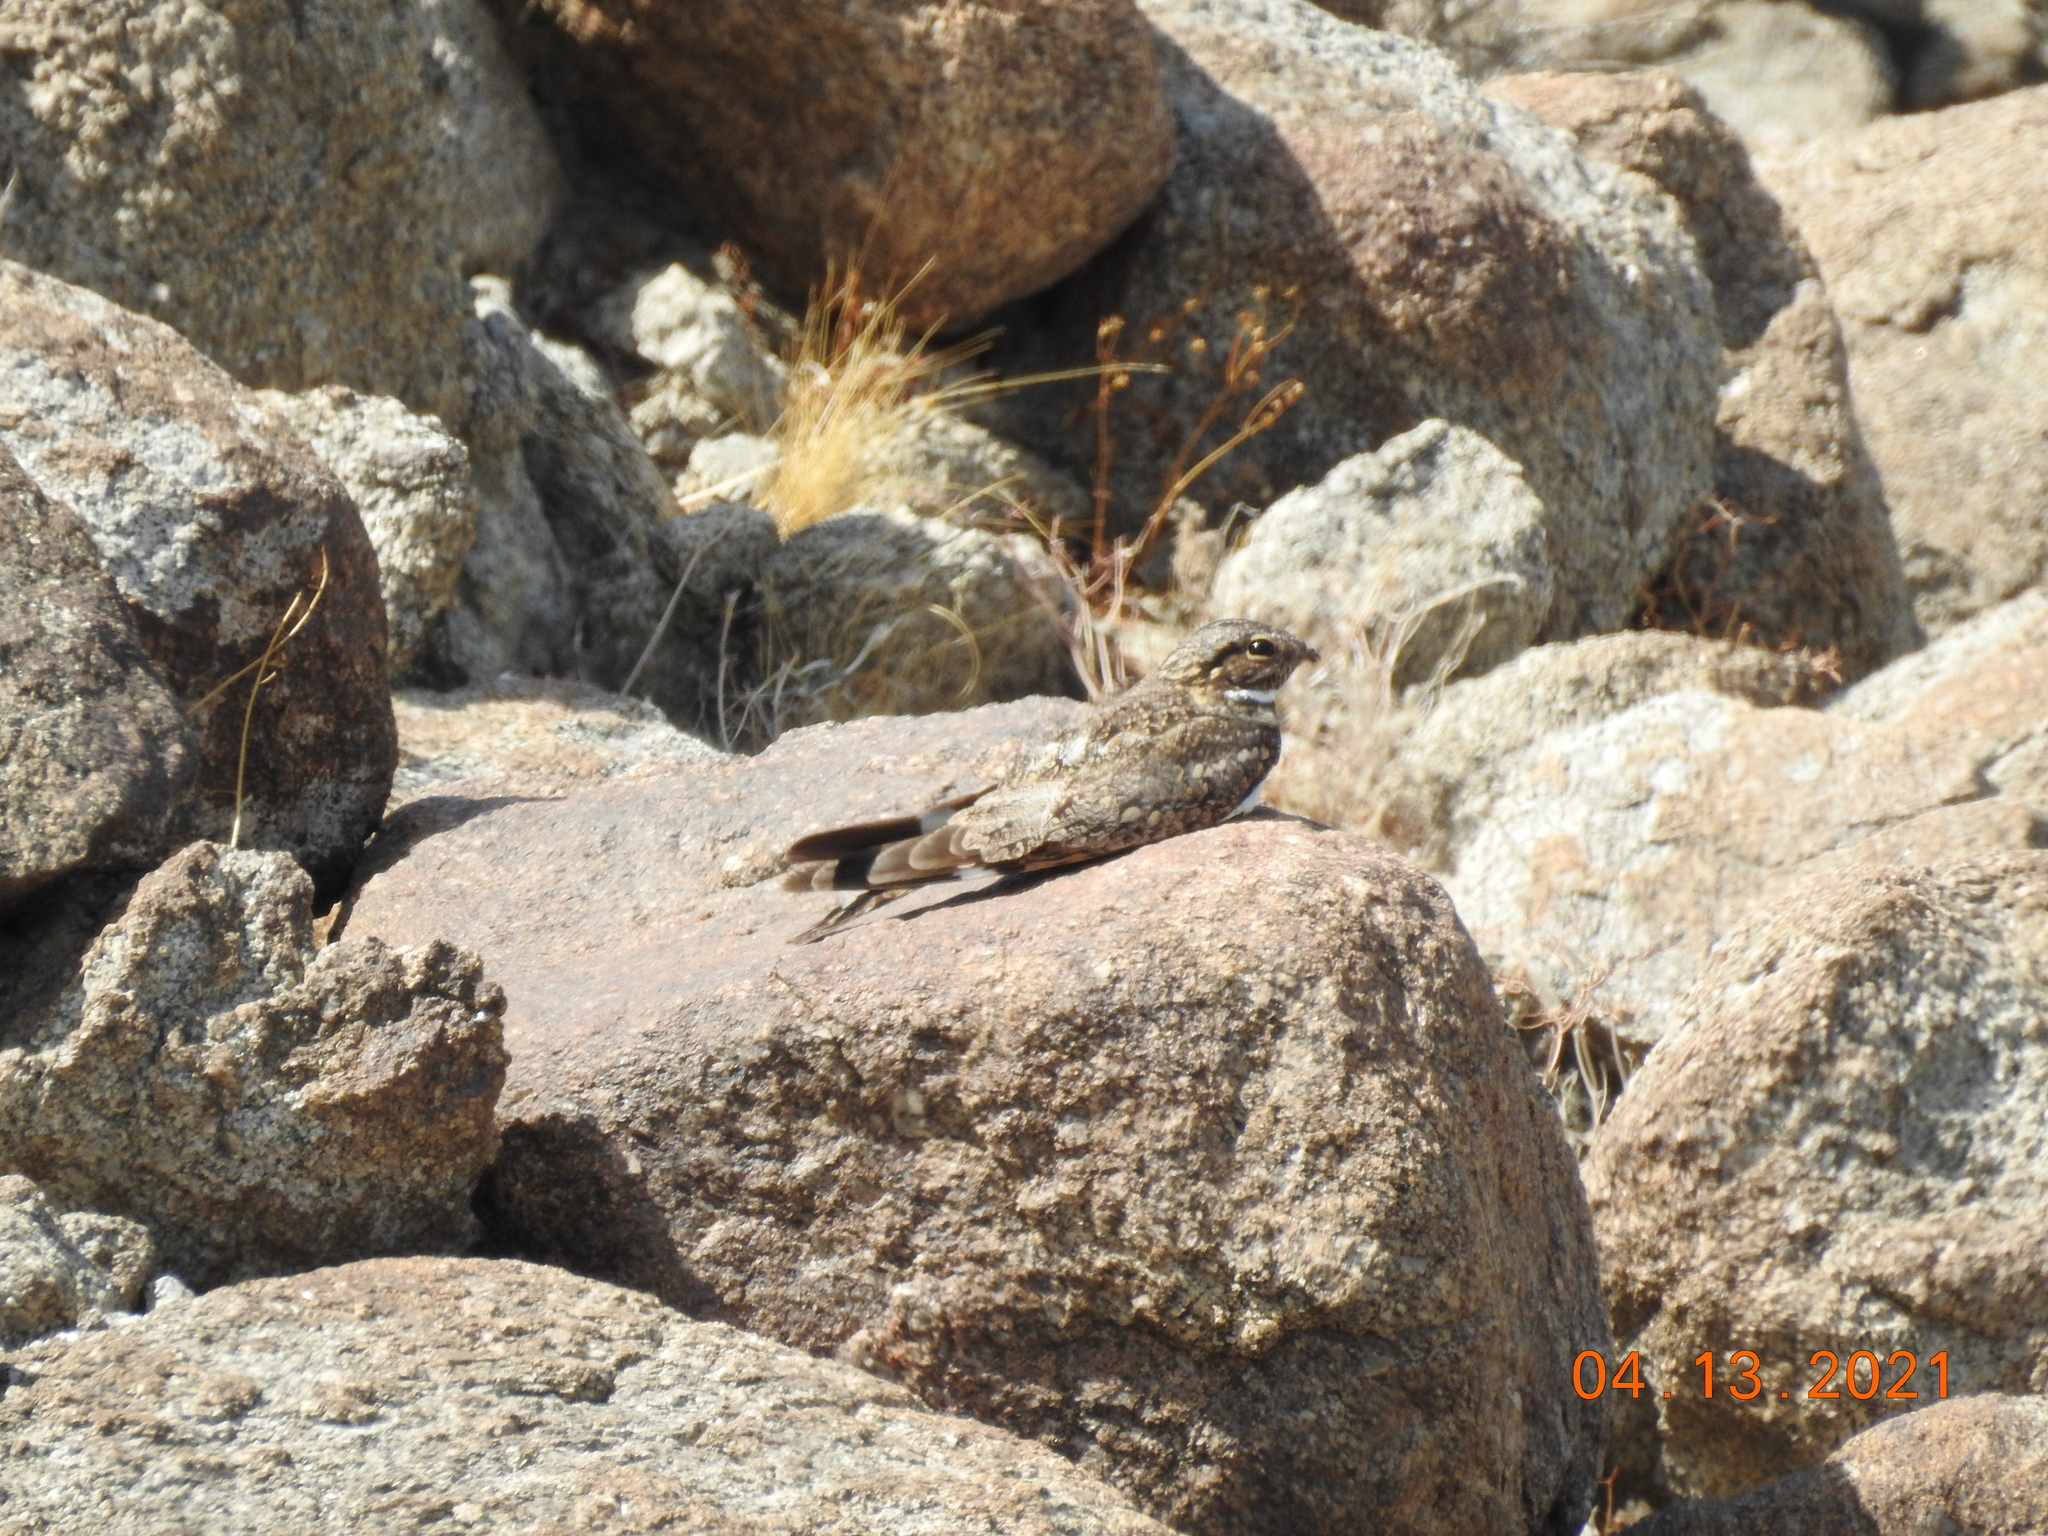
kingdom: Animalia
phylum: Chordata
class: Aves
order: Caprimulgiformes
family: Caprimulgidae
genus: Chordeiles
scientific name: Chordeiles acutipennis
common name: Lesser nighthawk
